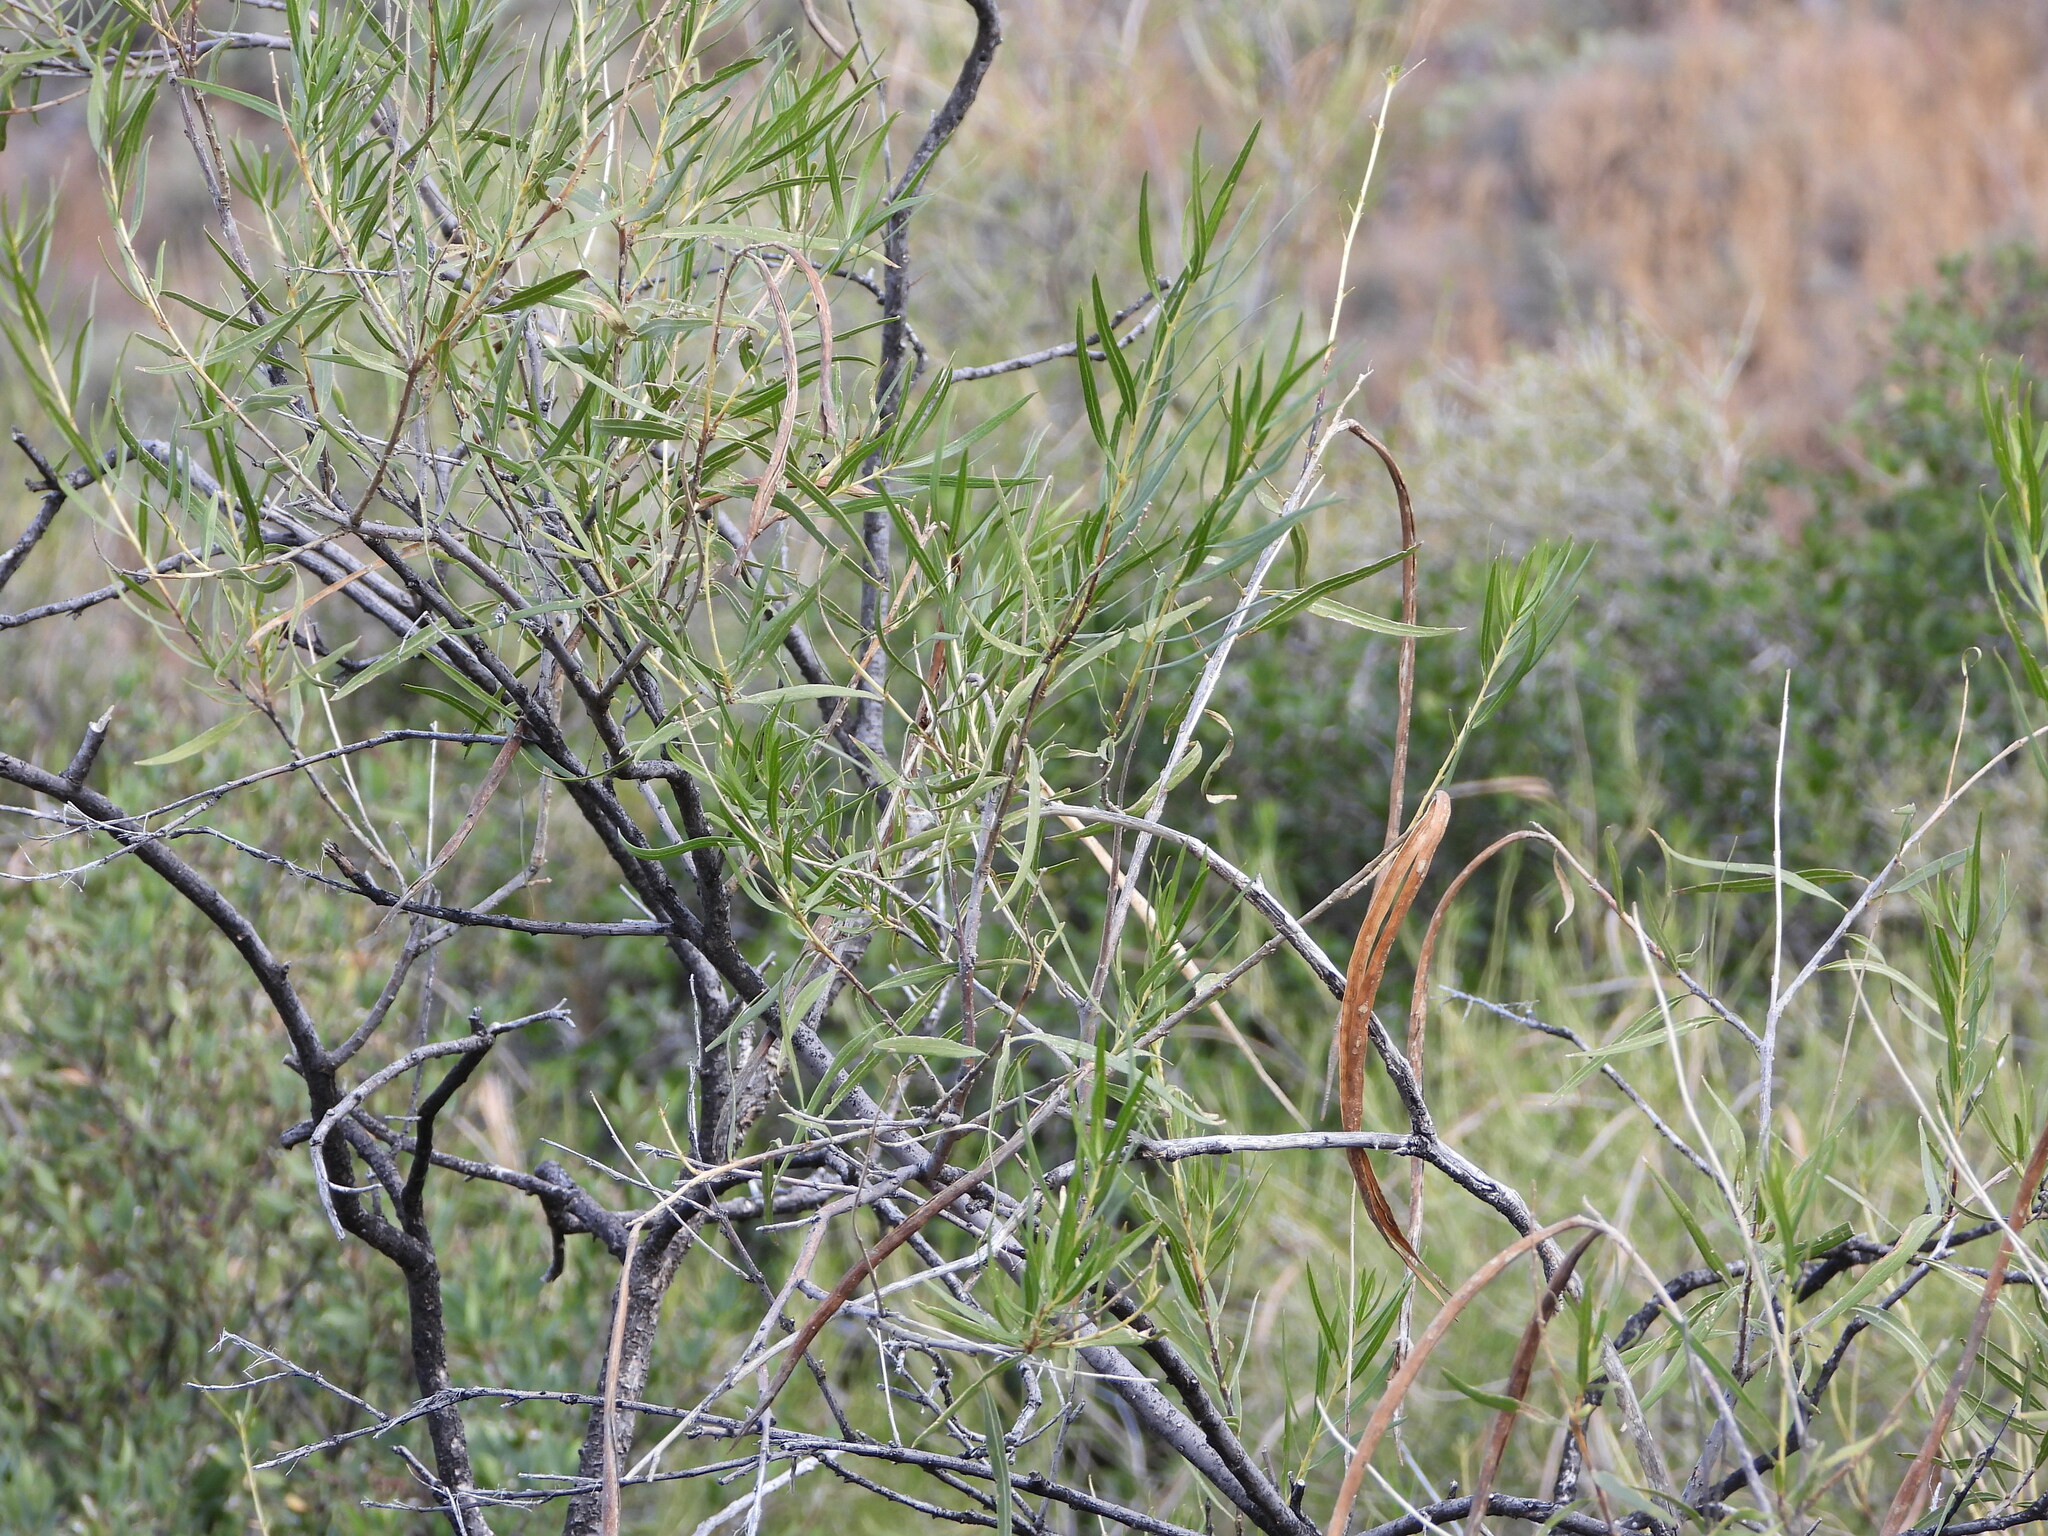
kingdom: Plantae
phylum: Tracheophyta
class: Magnoliopsida
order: Lamiales
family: Bignoniaceae
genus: Chilopsis
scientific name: Chilopsis linearis
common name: Desert-willow
